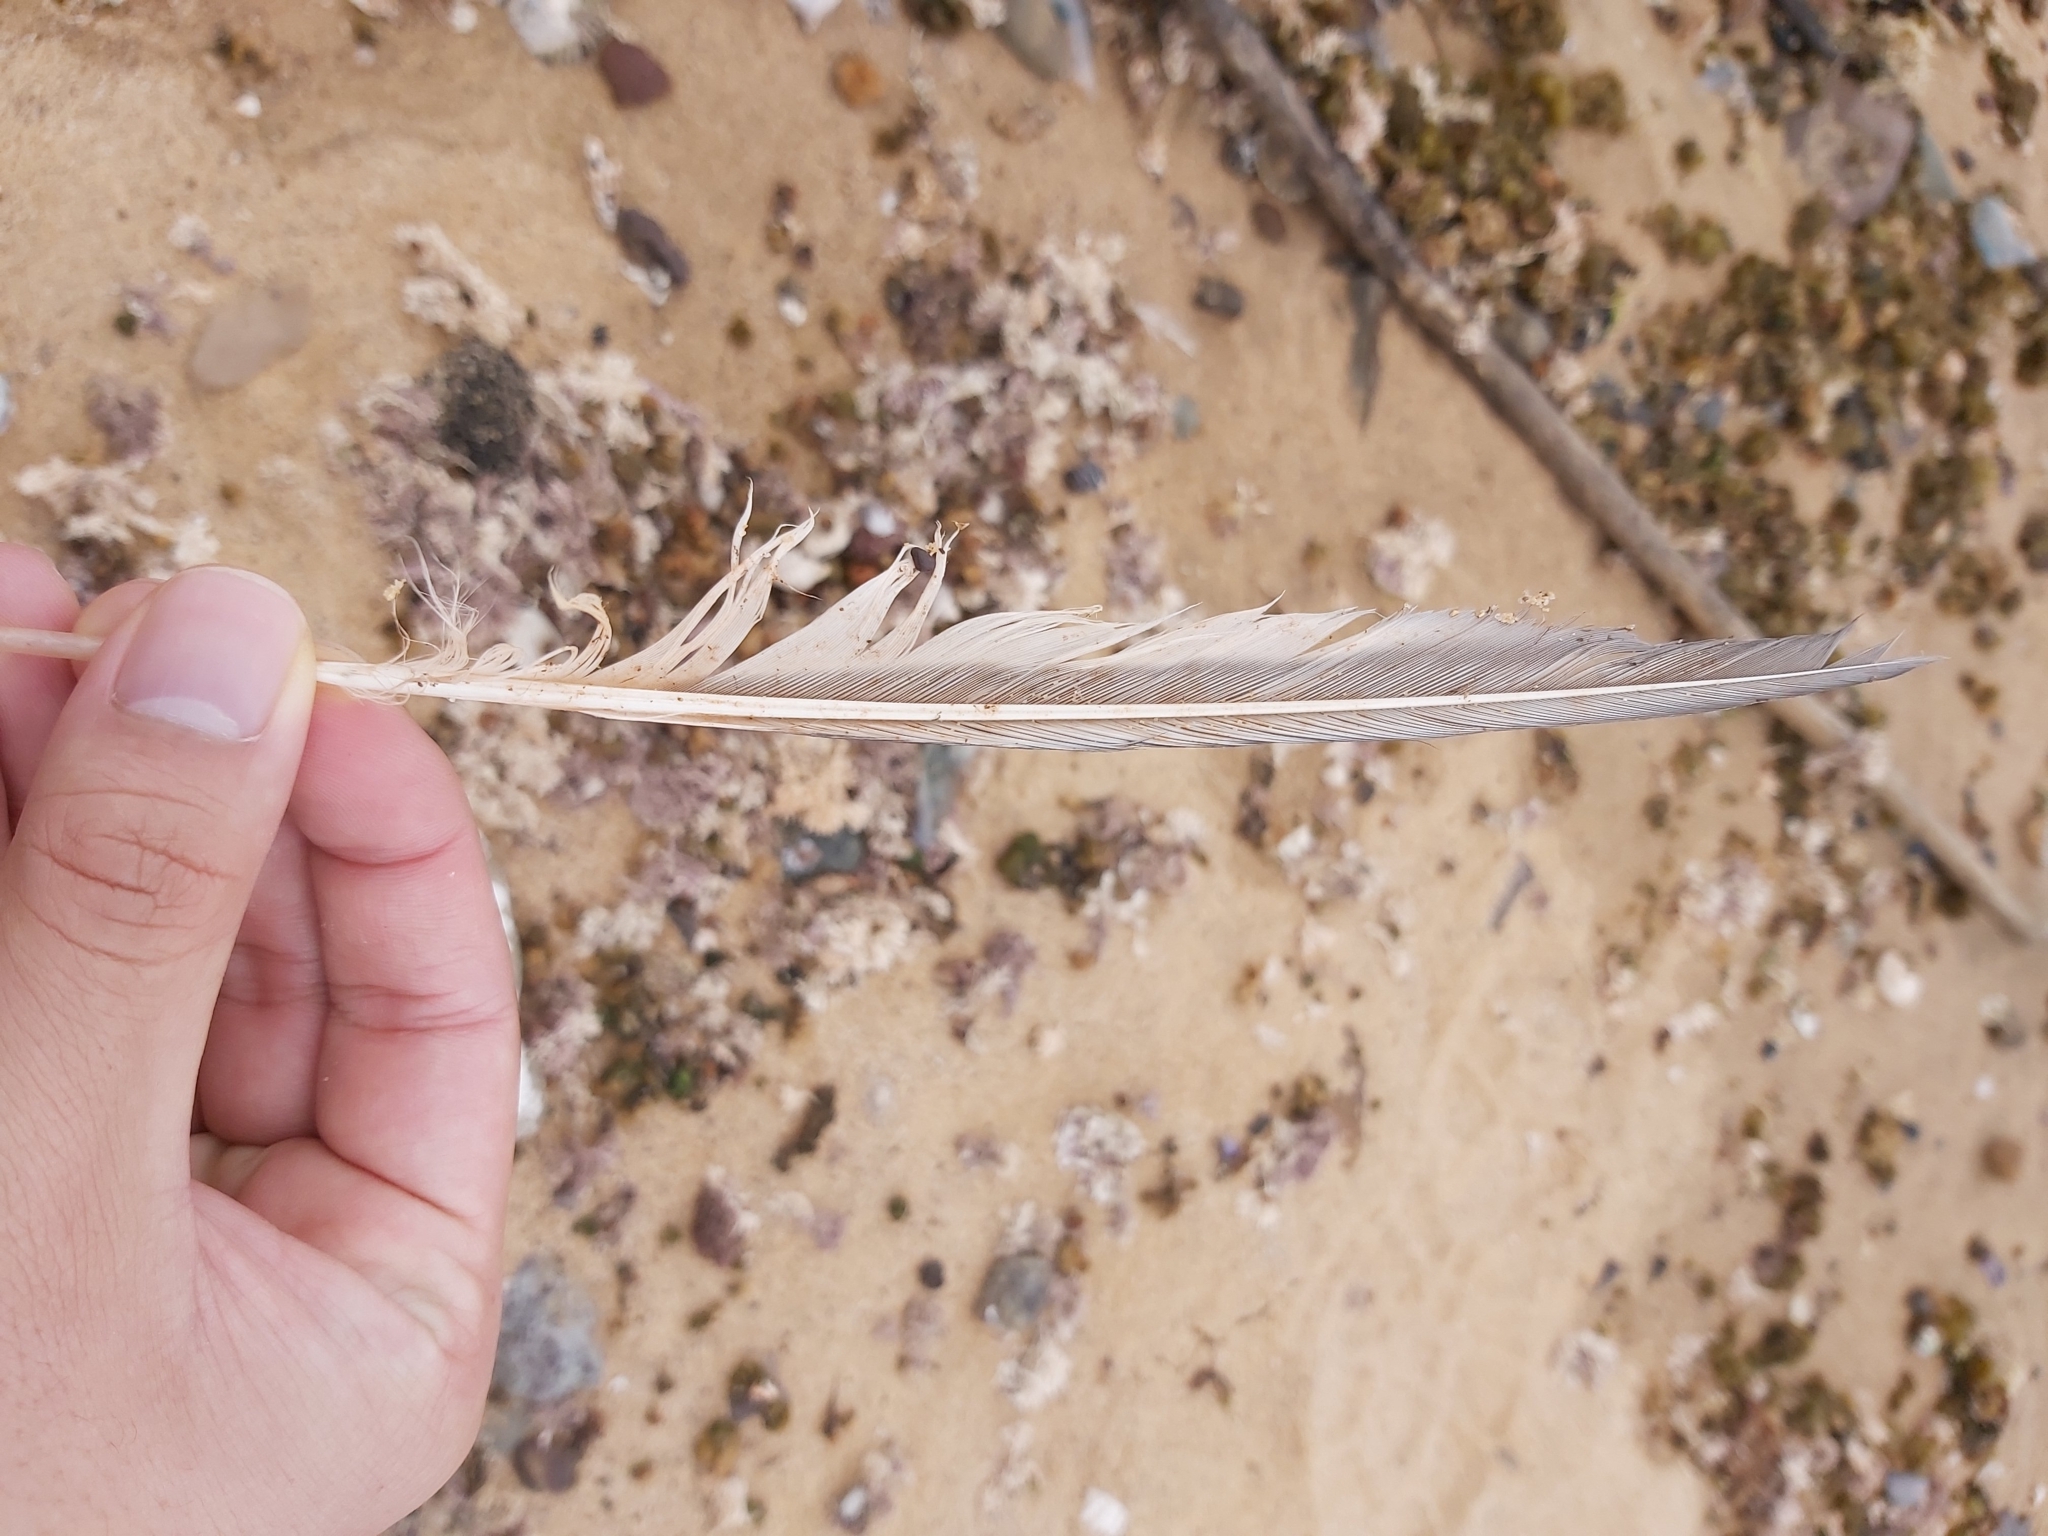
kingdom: Animalia
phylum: Chordata
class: Aves
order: Charadriiformes
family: Laridae
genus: Thalasseus
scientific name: Thalasseus bergii
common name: Greater crested tern
